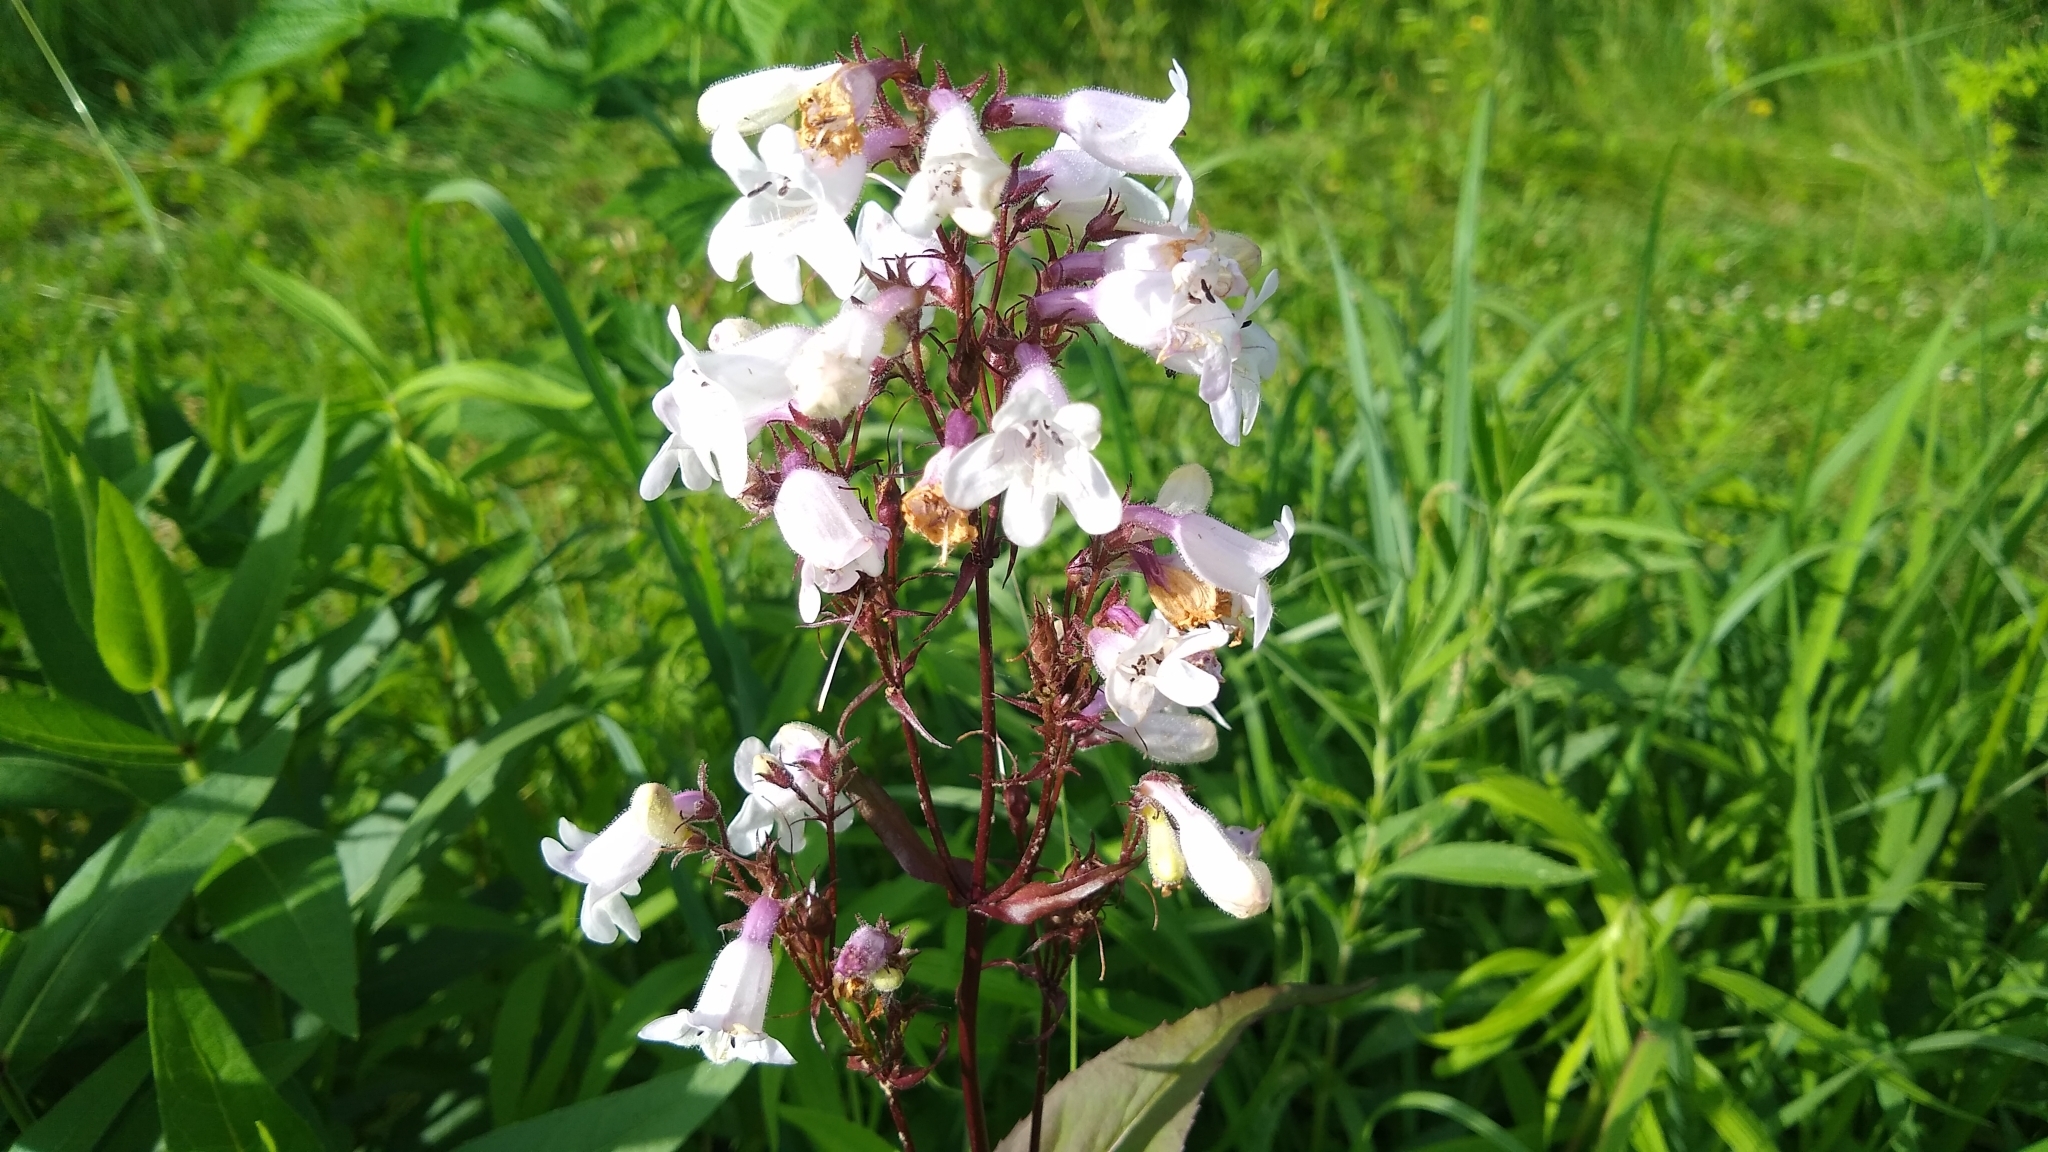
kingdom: Plantae
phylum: Tracheophyta
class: Magnoliopsida
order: Lamiales
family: Plantaginaceae
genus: Penstemon
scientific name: Penstemon digitalis
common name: Foxglove beardtongue
